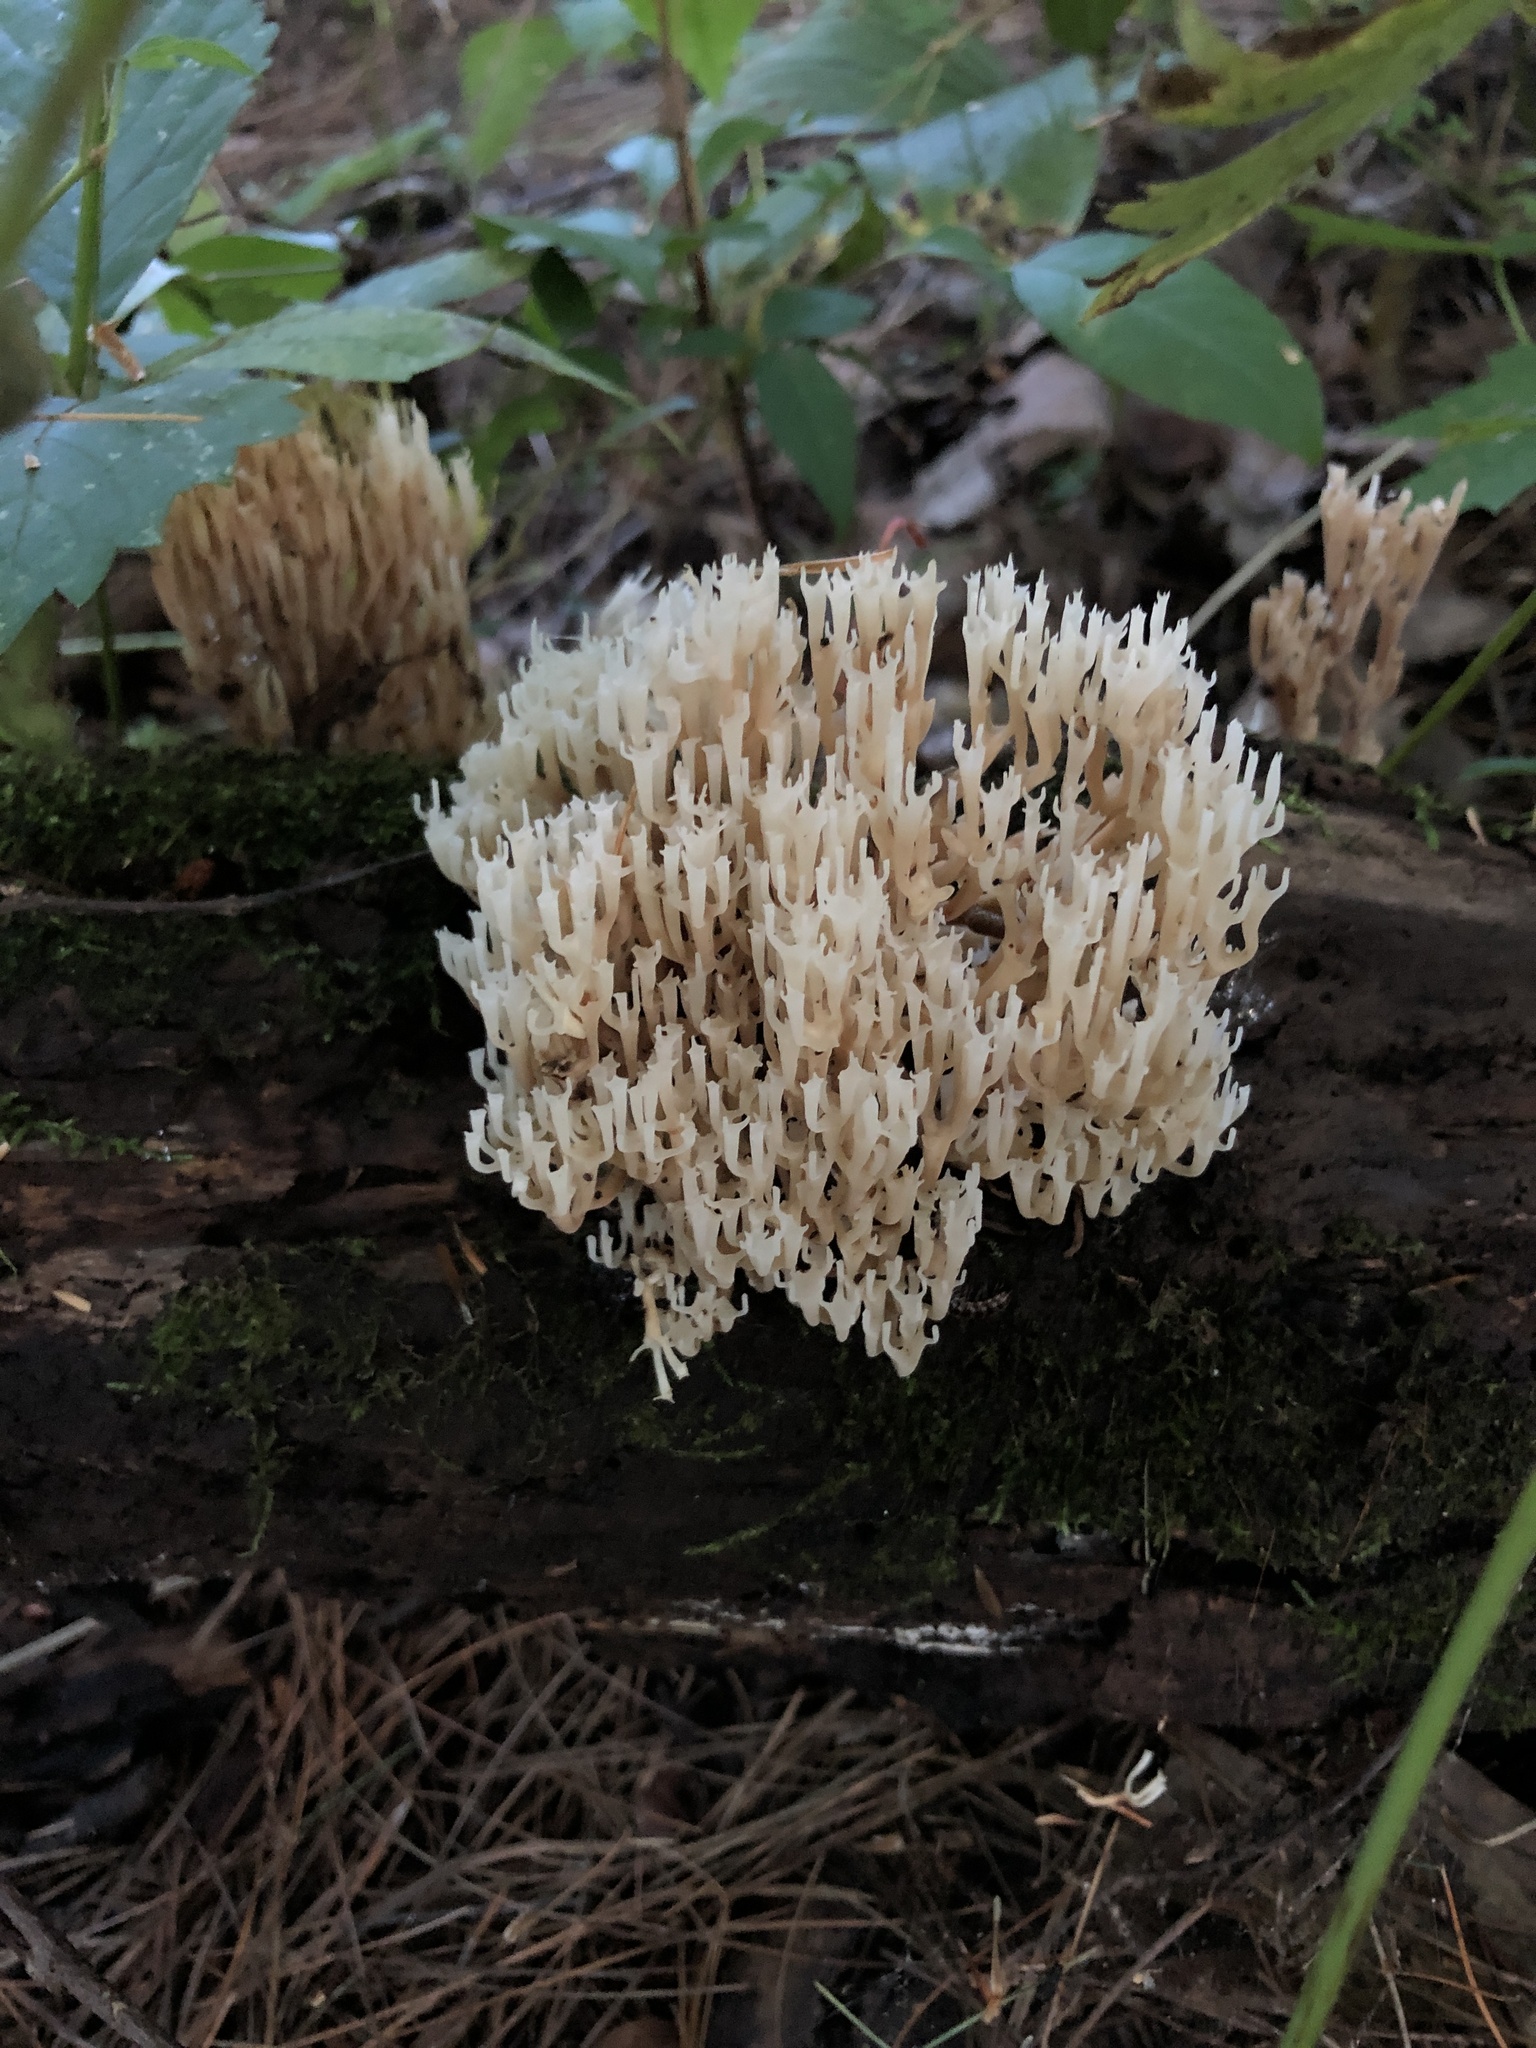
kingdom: Fungi
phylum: Basidiomycota
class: Agaricomycetes
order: Russulales
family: Auriscalpiaceae
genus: Artomyces
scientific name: Artomyces pyxidatus
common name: Crown-tipped coral fungus
